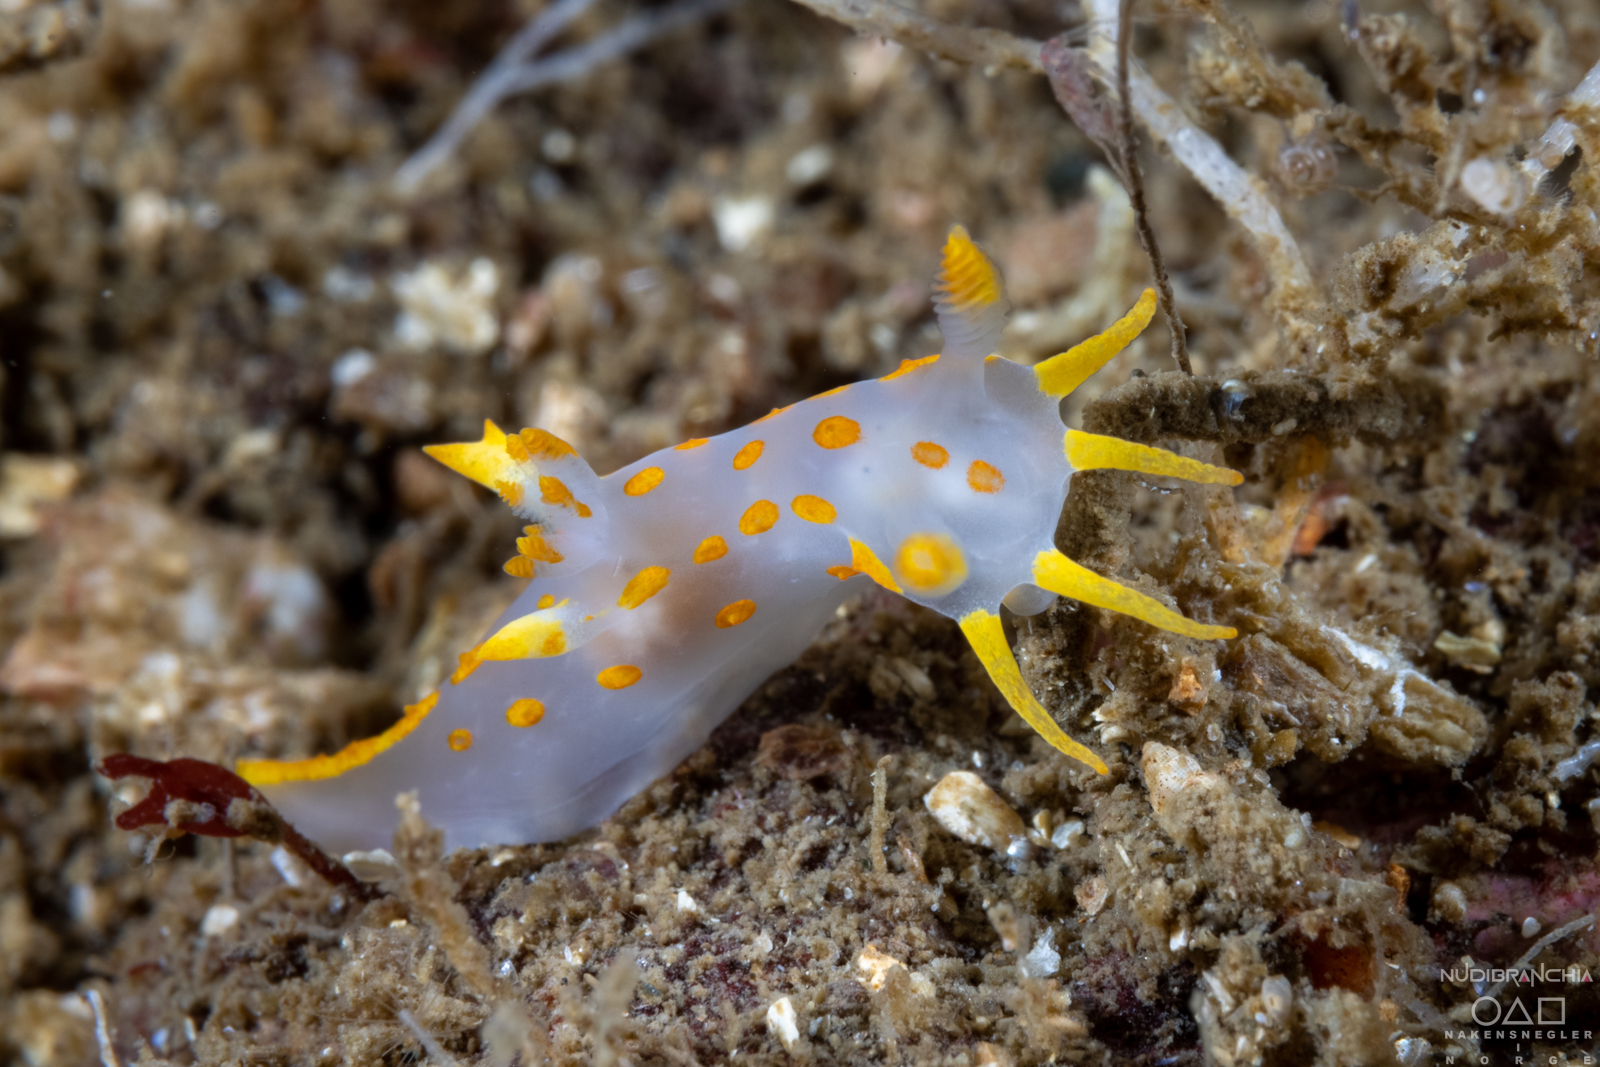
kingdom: Animalia
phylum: Mollusca
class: Gastropoda
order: Nudibranchia
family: Polyceridae
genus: Polycera
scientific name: Polycera quadrilineata
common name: Four-striped polycera
